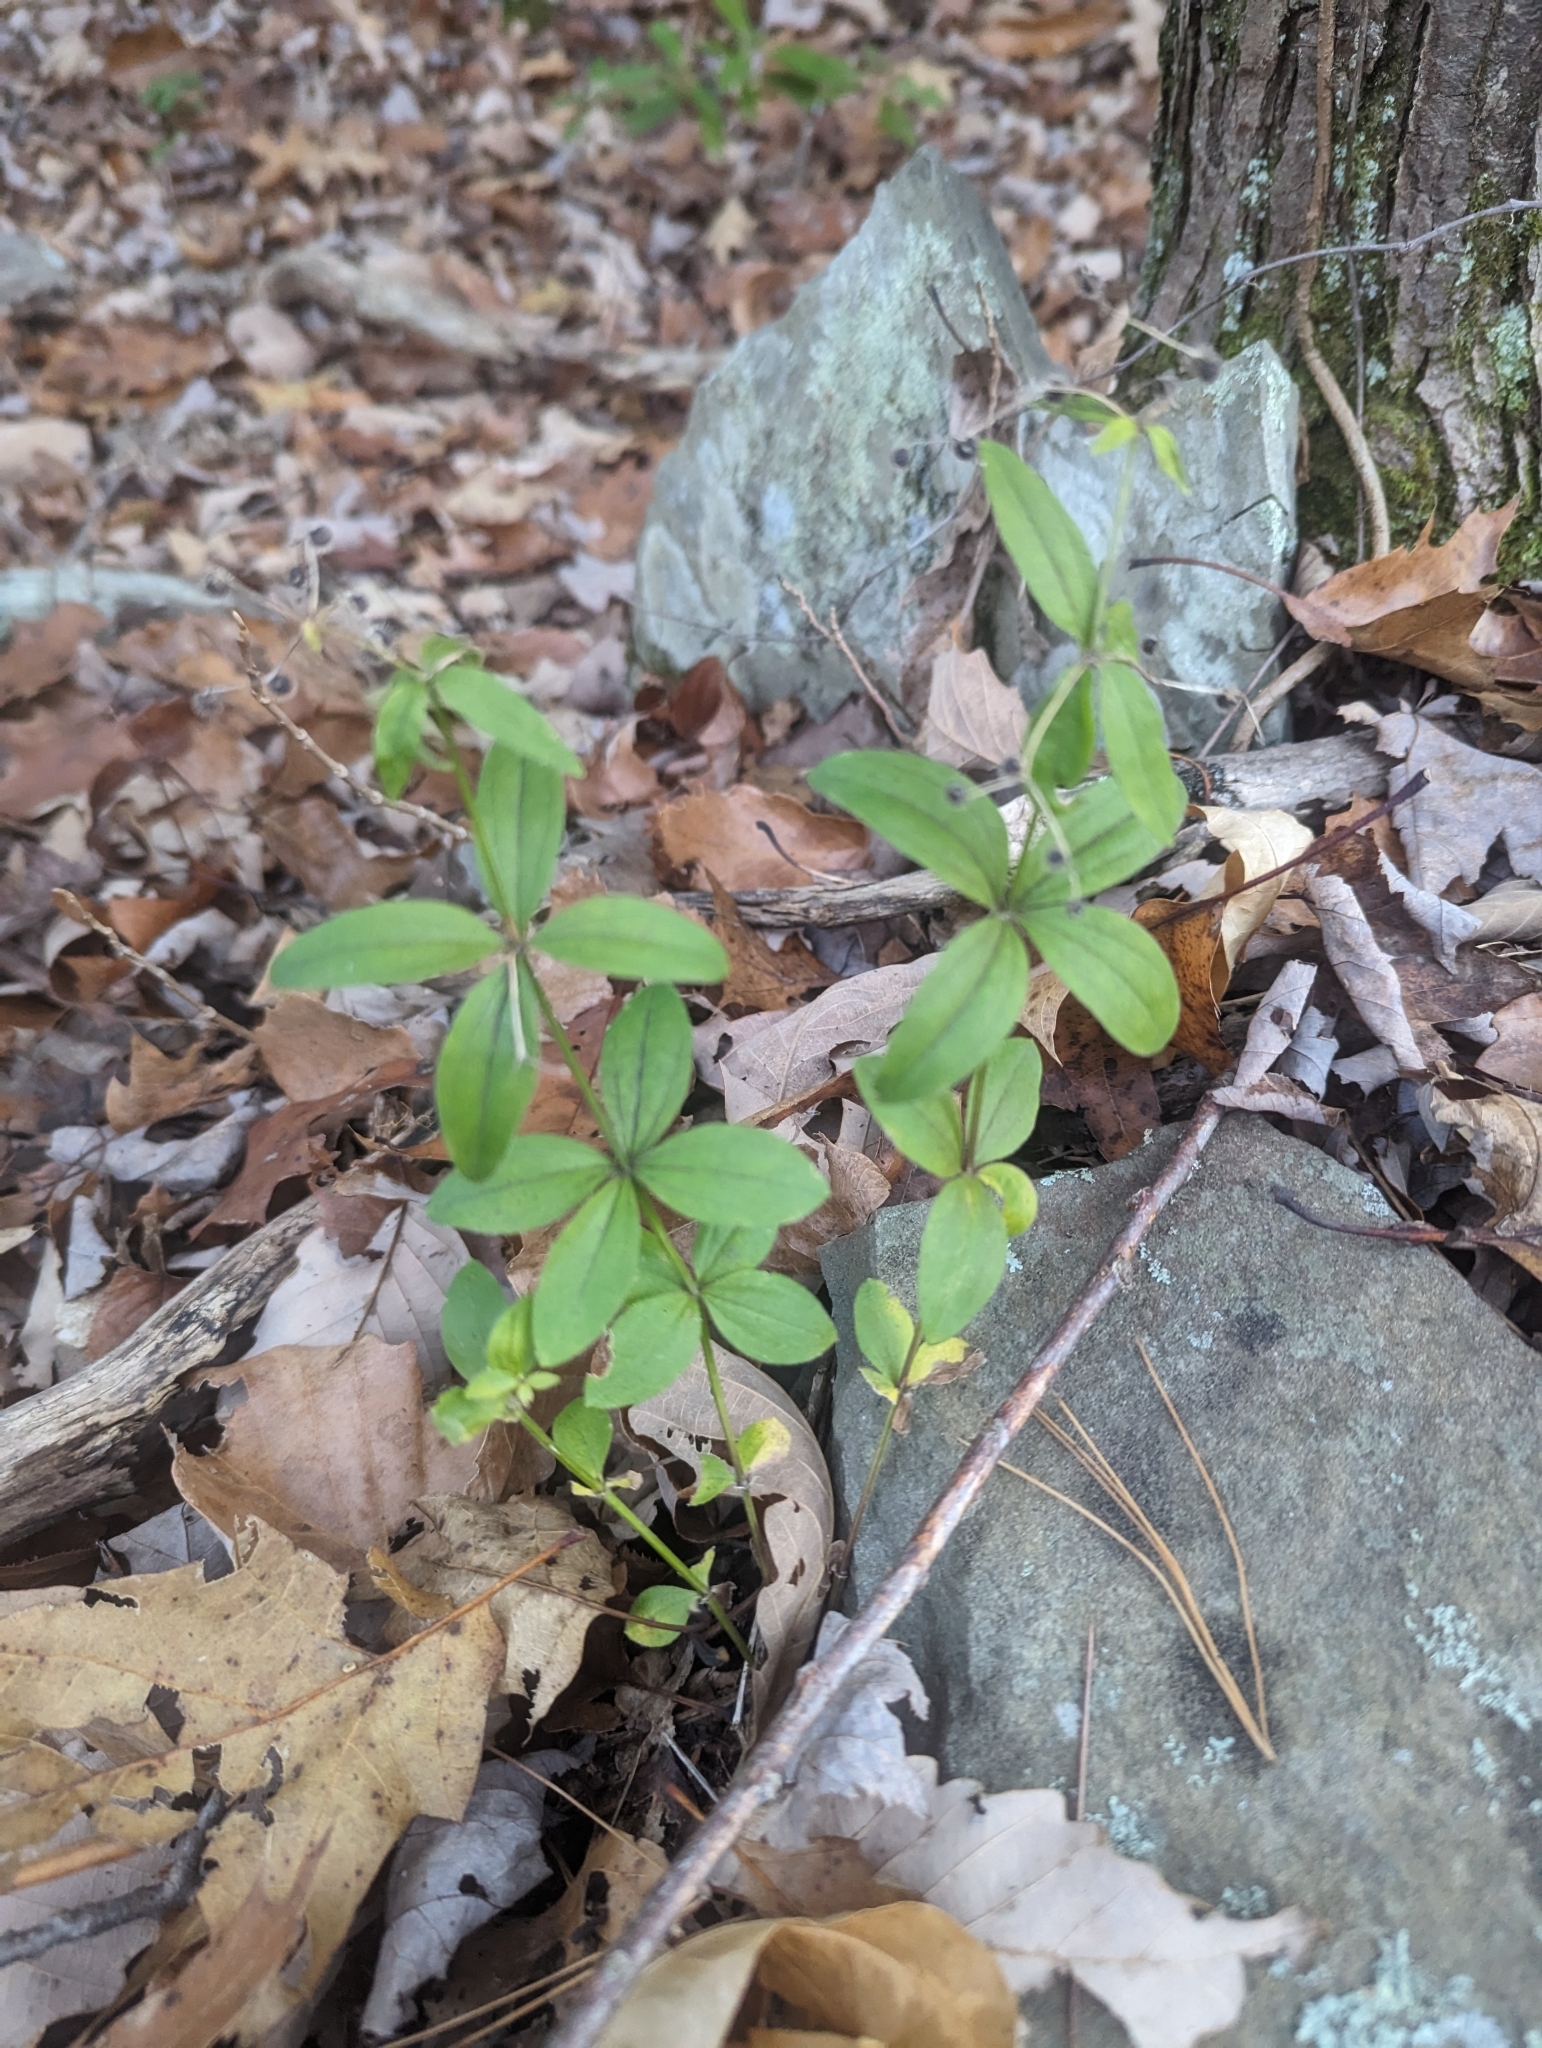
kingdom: Plantae
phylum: Tracheophyta
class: Magnoliopsida
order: Gentianales
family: Rubiaceae
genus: Galium
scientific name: Galium circaezans
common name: Forest bedstraw
